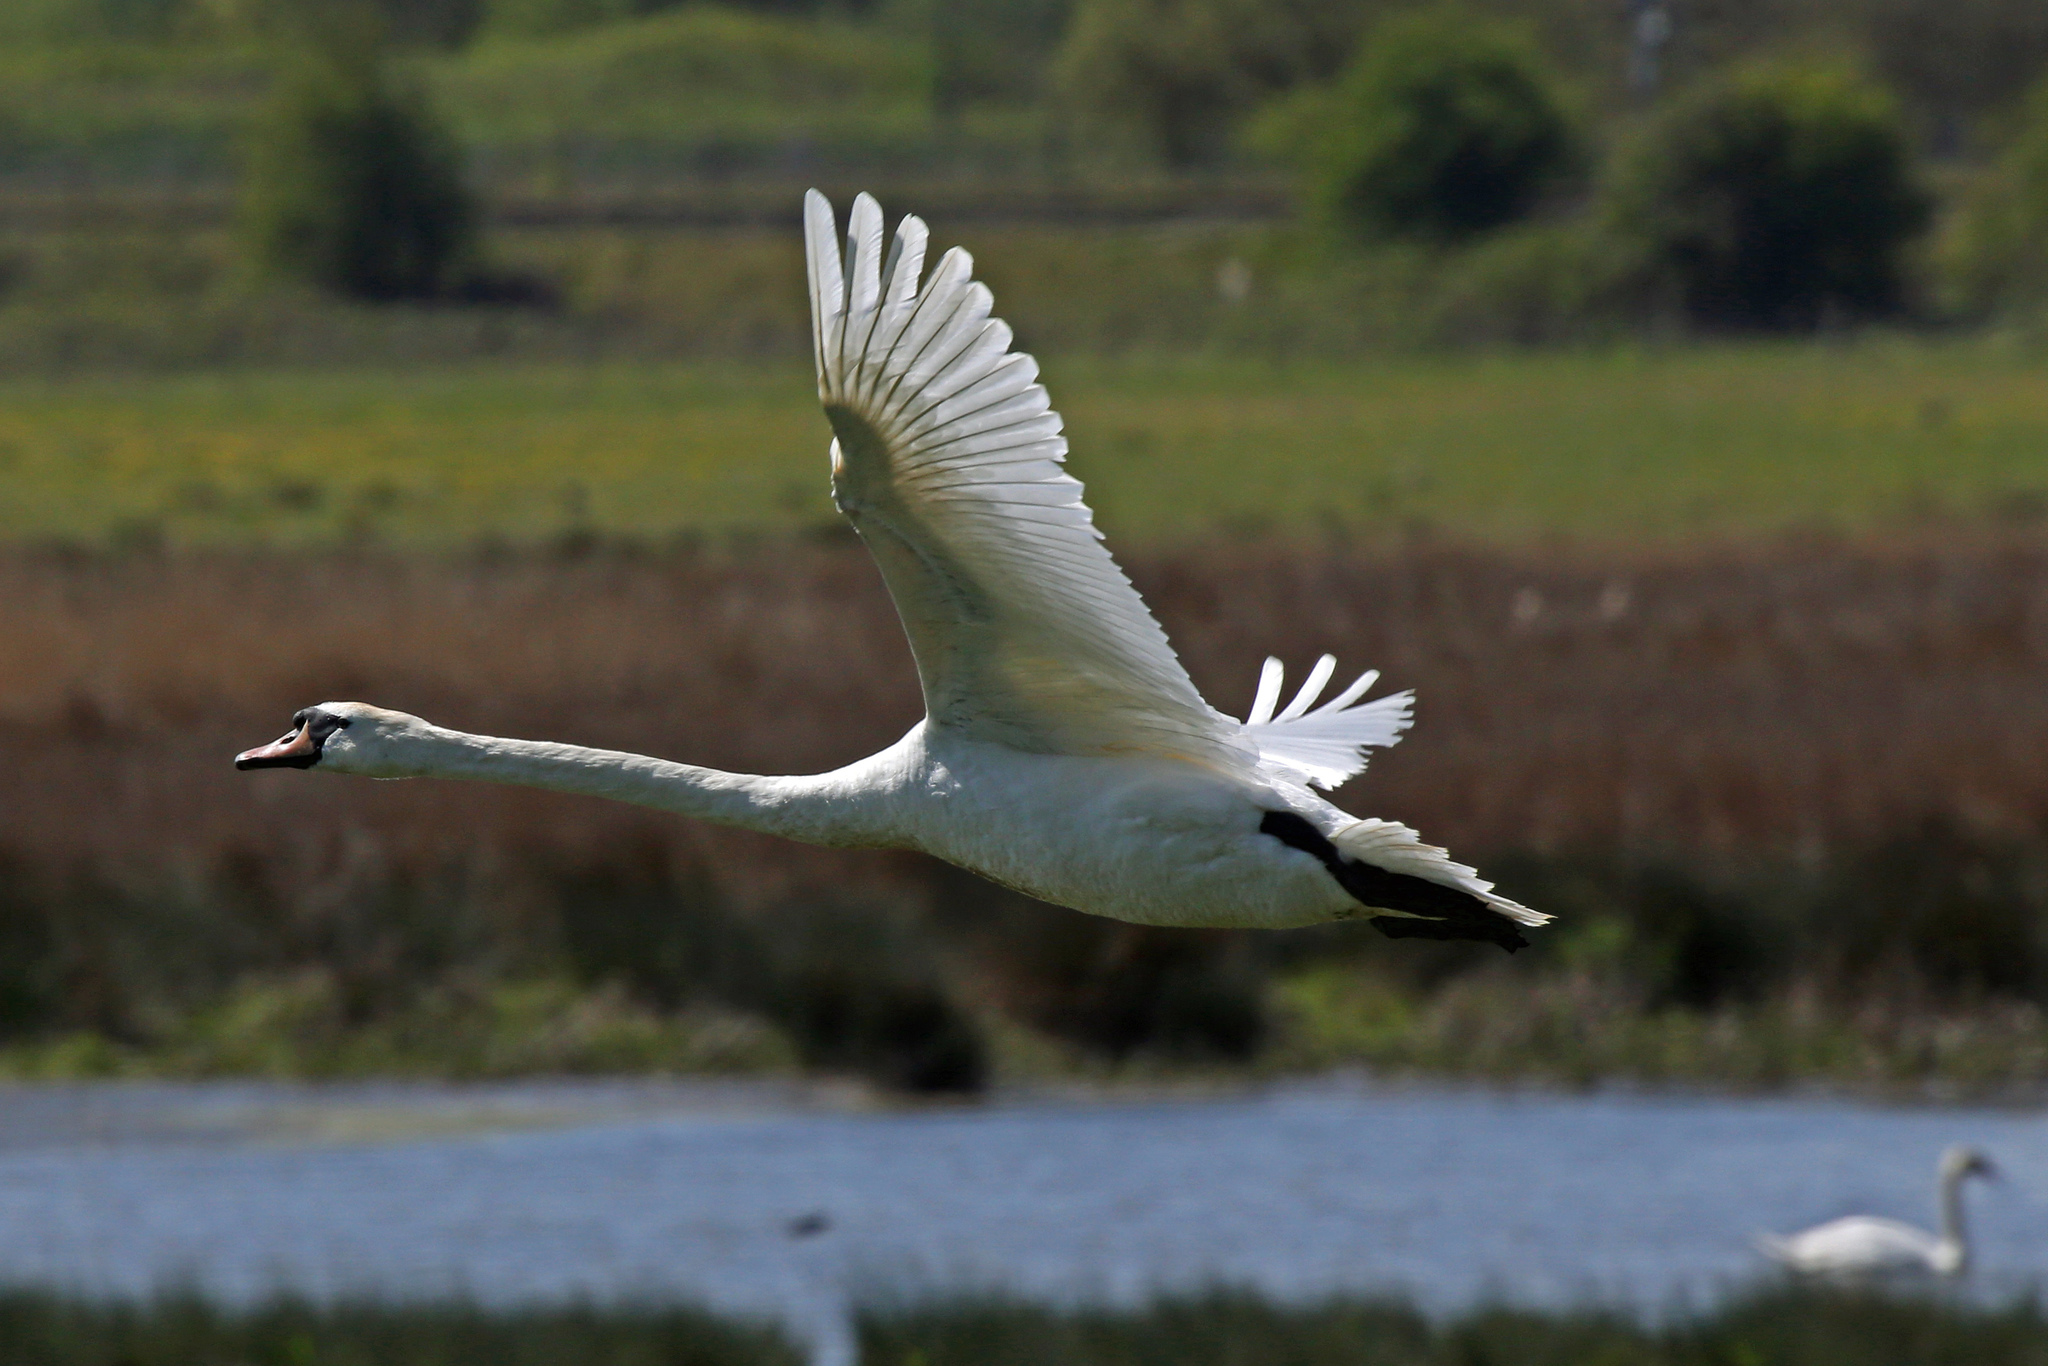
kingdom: Animalia
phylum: Chordata
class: Aves
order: Anseriformes
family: Anatidae
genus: Cygnus
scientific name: Cygnus olor
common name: Mute swan
